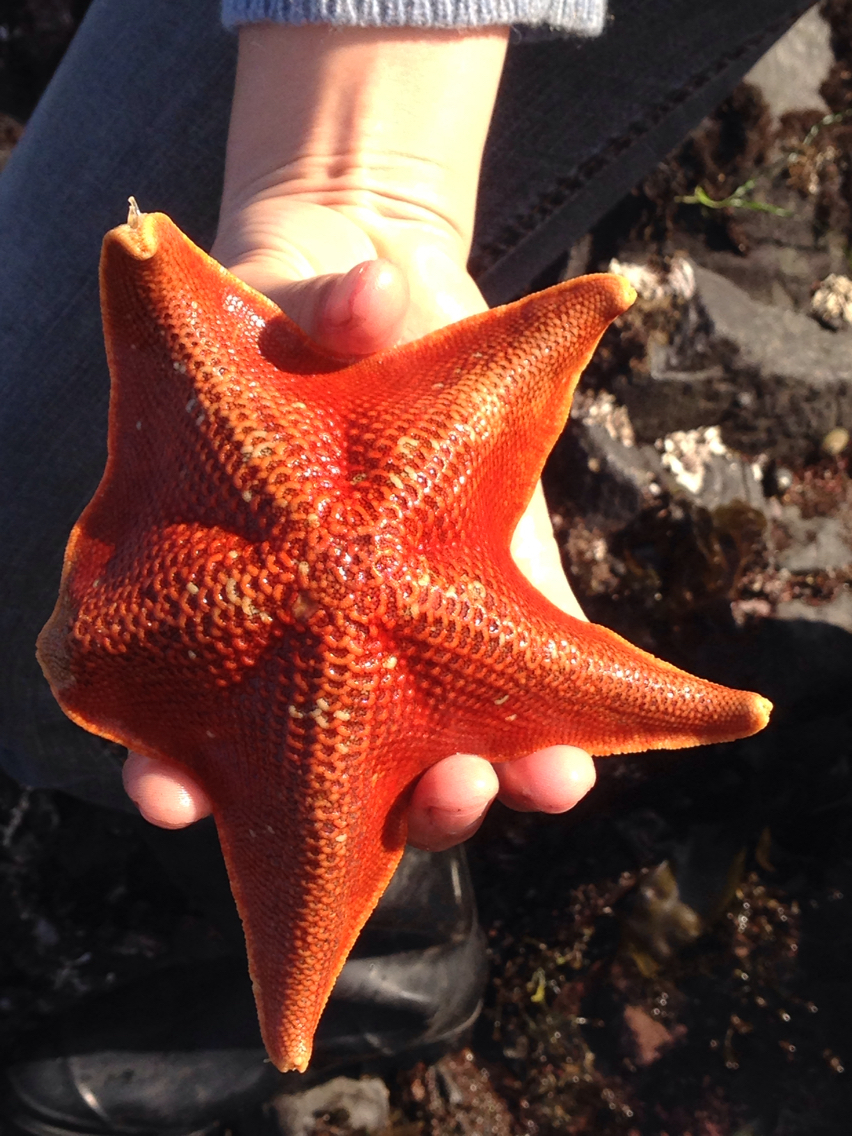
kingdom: Animalia
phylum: Echinodermata
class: Asteroidea
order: Valvatida
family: Asterinidae
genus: Patiria
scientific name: Patiria miniata
